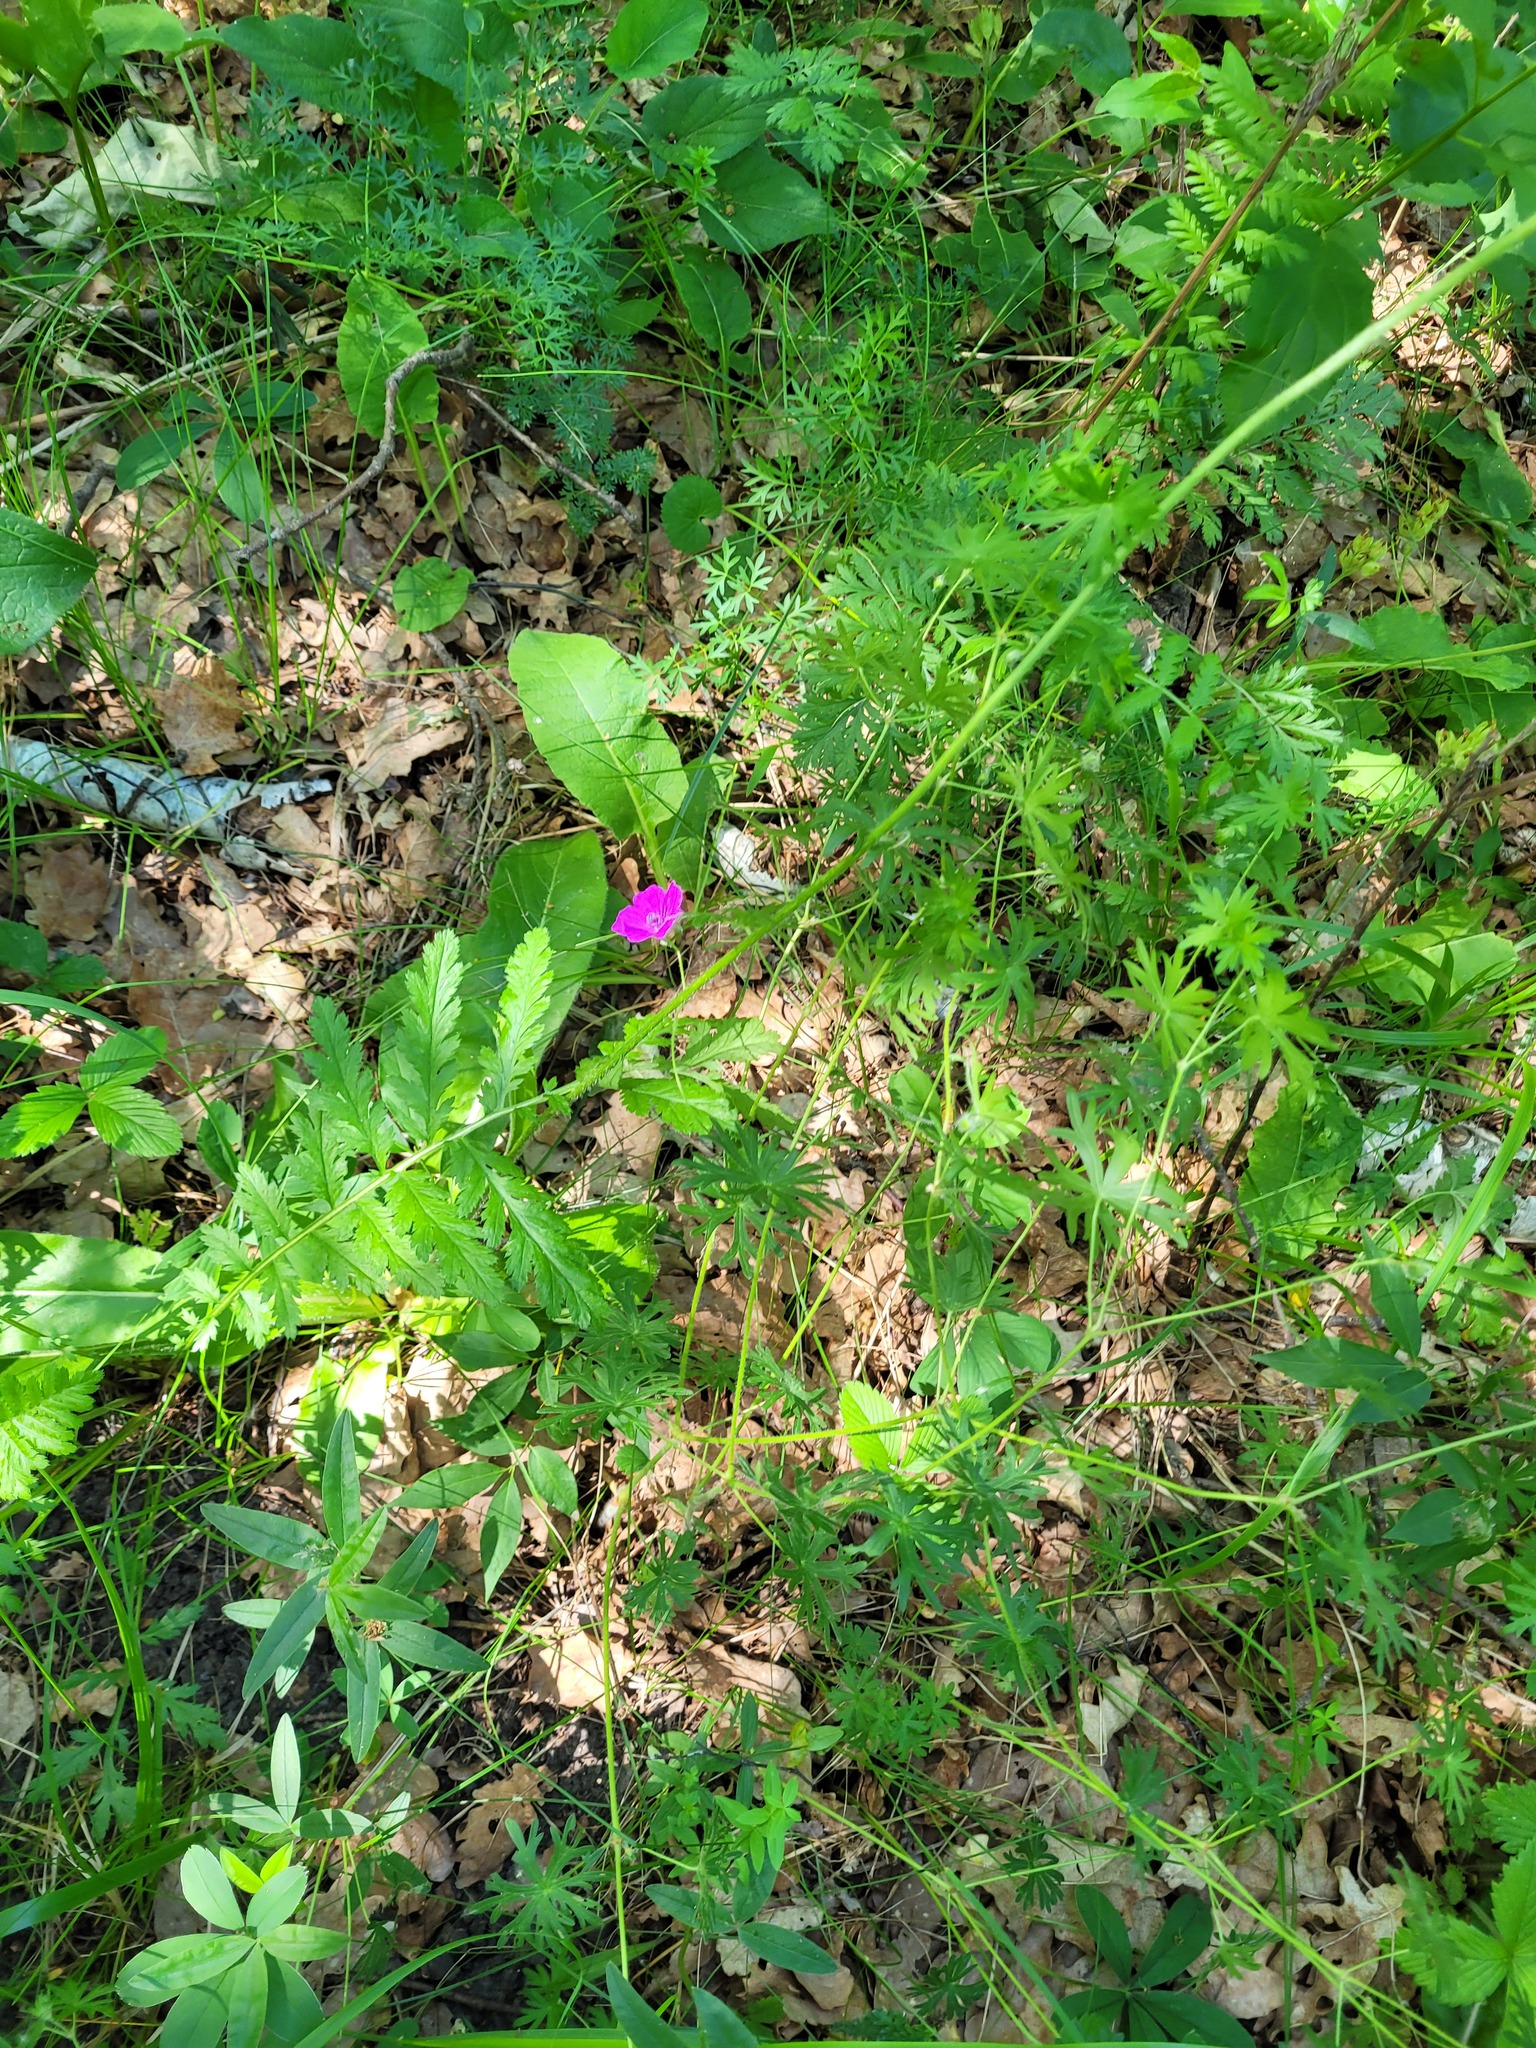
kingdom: Plantae
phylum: Tracheophyta
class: Magnoliopsida
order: Geraniales
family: Geraniaceae
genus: Geranium
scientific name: Geranium sanguineum
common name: Bloody crane's-bill
